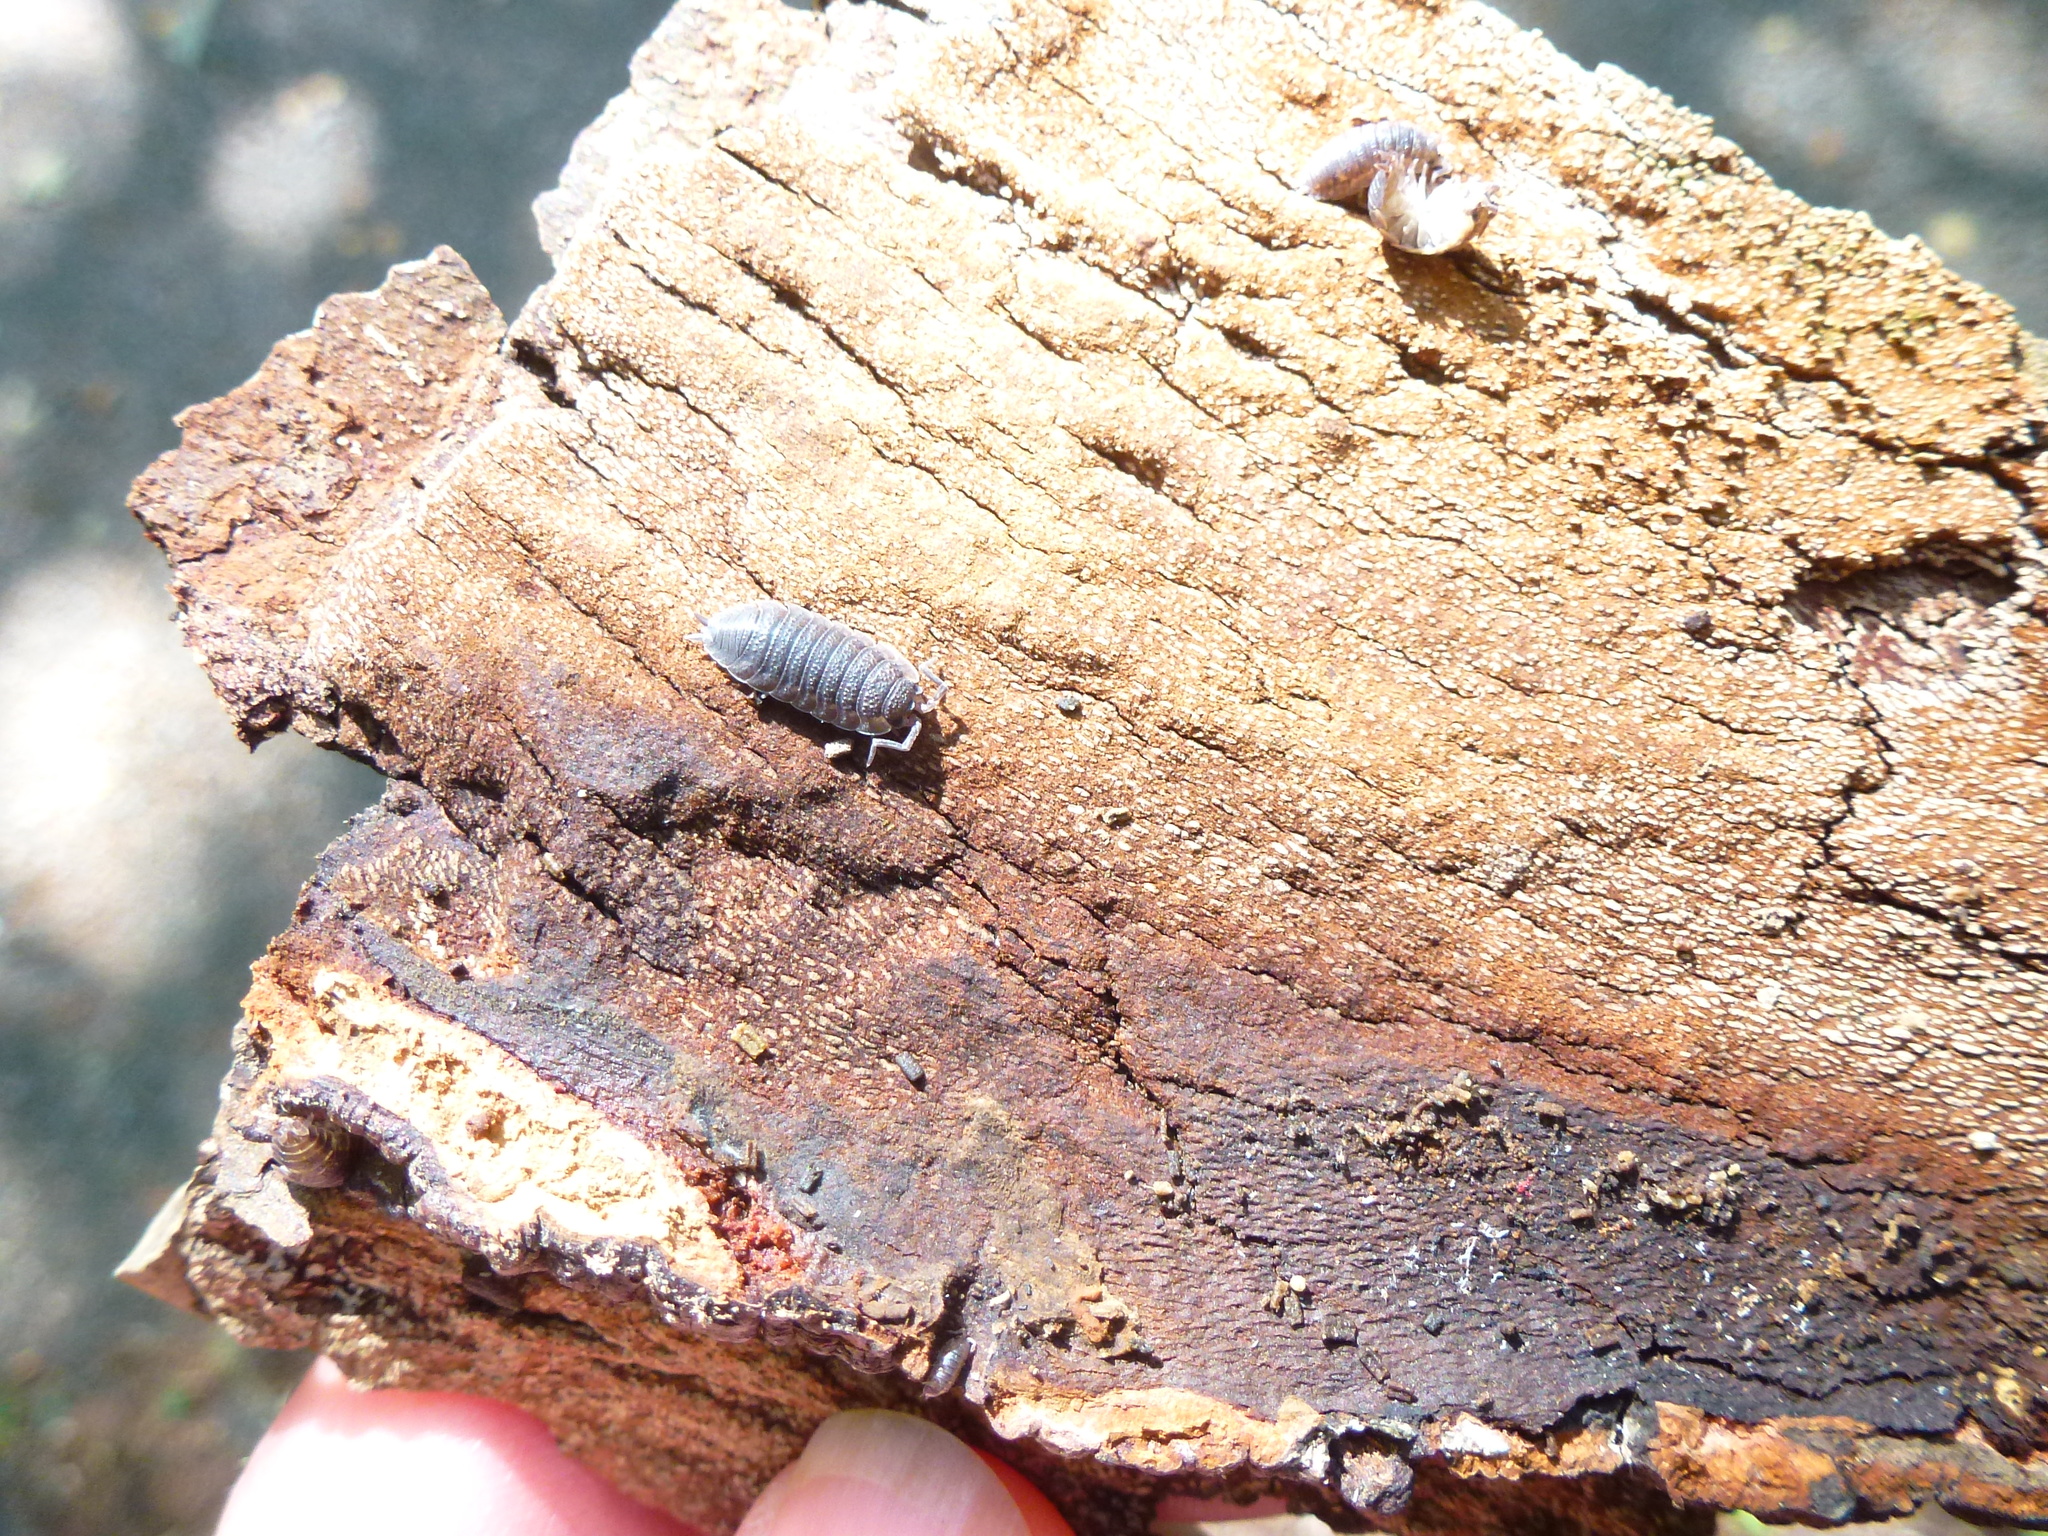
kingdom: Animalia
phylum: Arthropoda
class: Malacostraca
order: Isopoda
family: Porcellionidae
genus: Porcellio
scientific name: Porcellio scaber
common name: Common rough woodlouse
